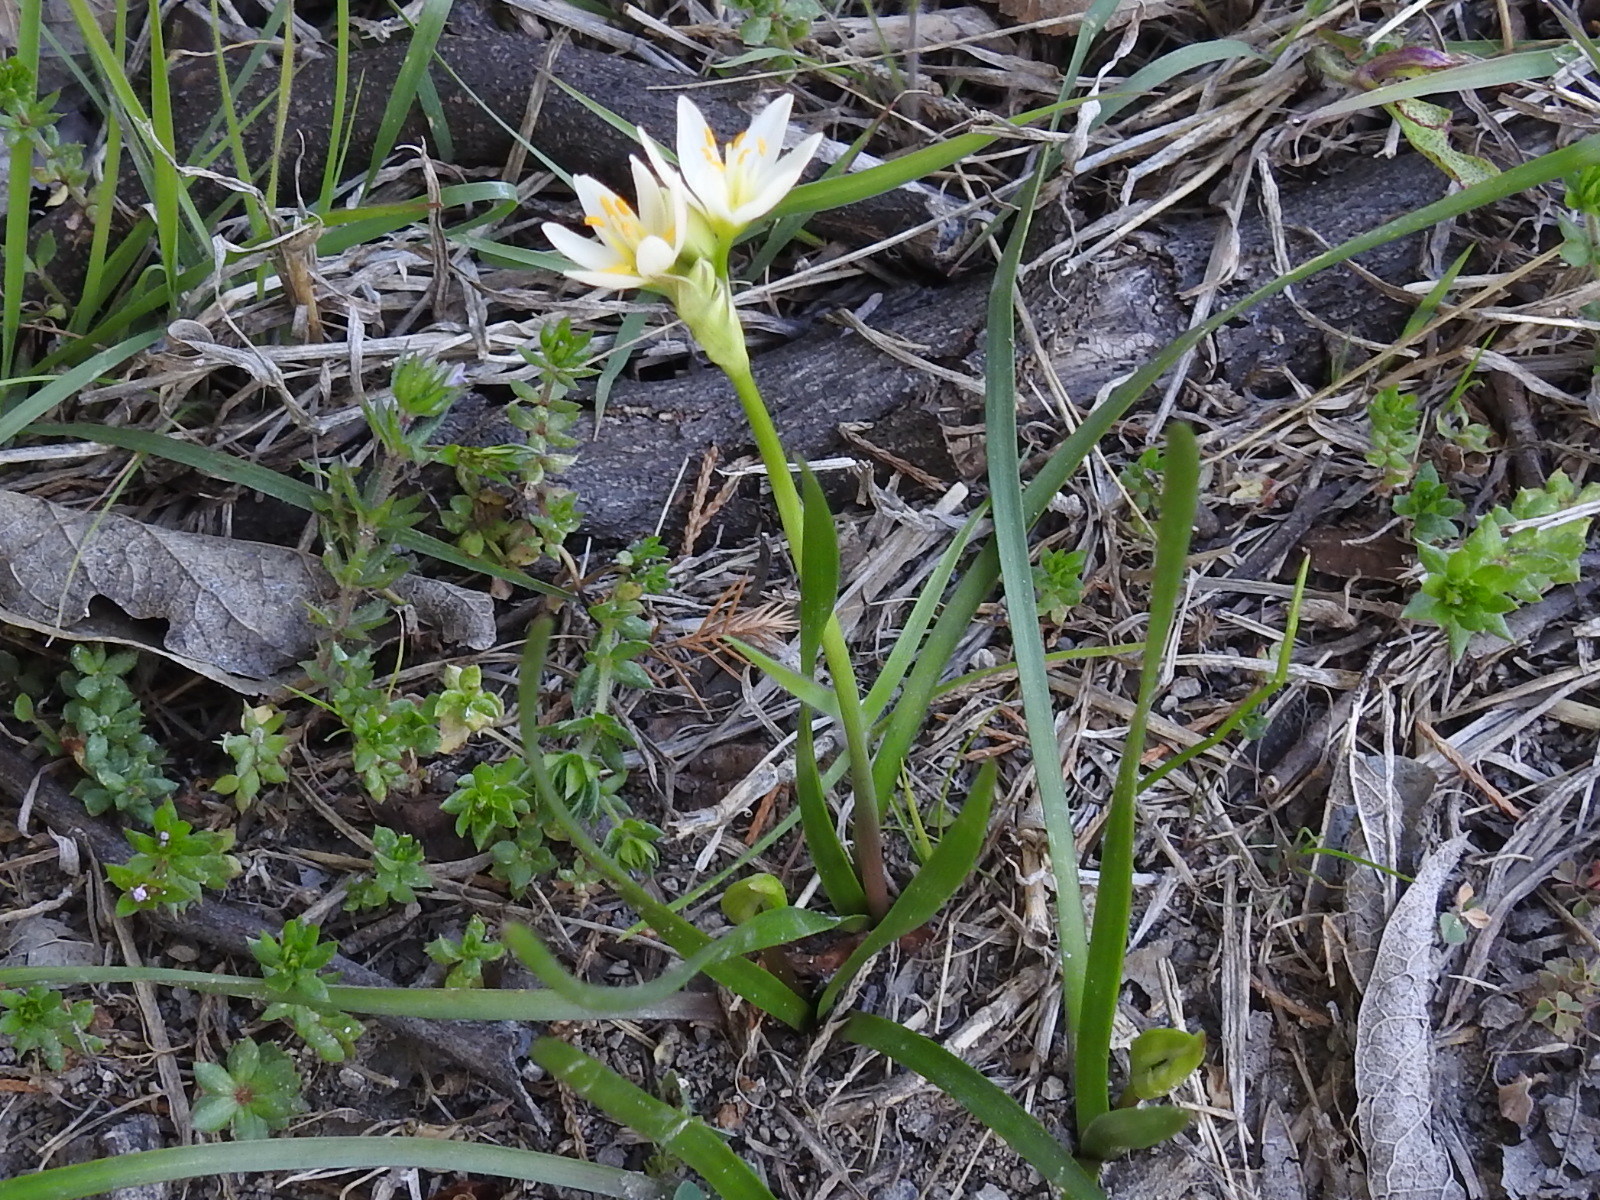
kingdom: Plantae
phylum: Tracheophyta
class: Liliopsida
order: Asparagales
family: Amaryllidaceae
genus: Nothoscordum
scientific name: Nothoscordum bivalve
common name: Crow-poison
